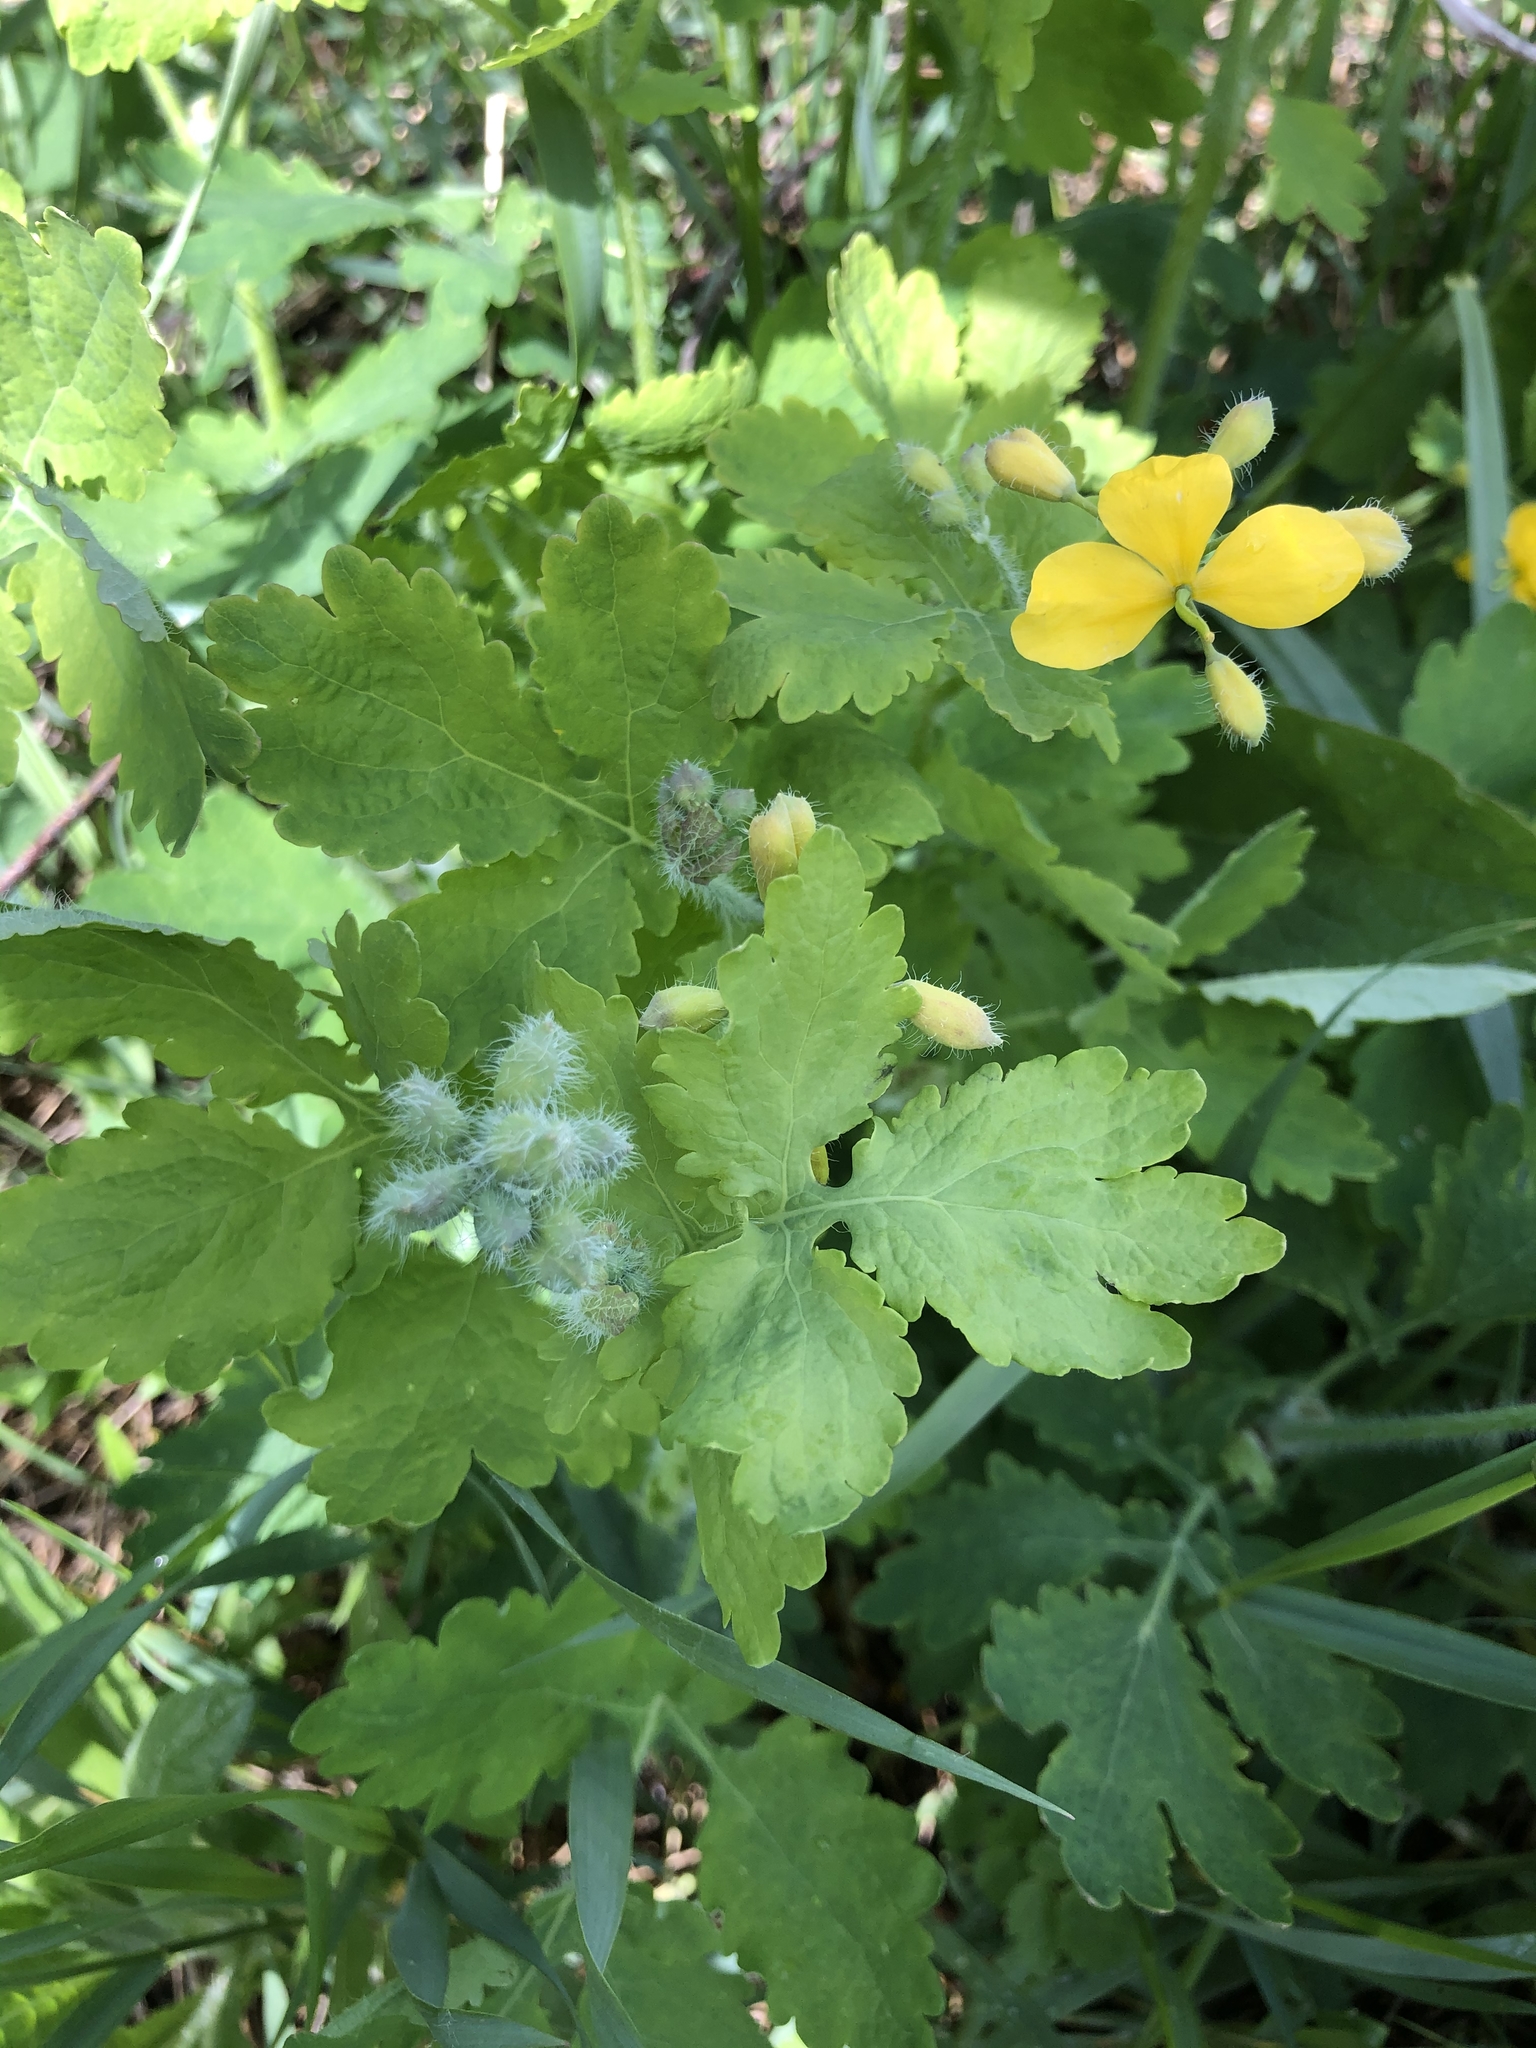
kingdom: Plantae
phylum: Tracheophyta
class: Magnoliopsida
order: Ranunculales
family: Papaveraceae
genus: Chelidonium
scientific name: Chelidonium majus
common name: Greater celandine
